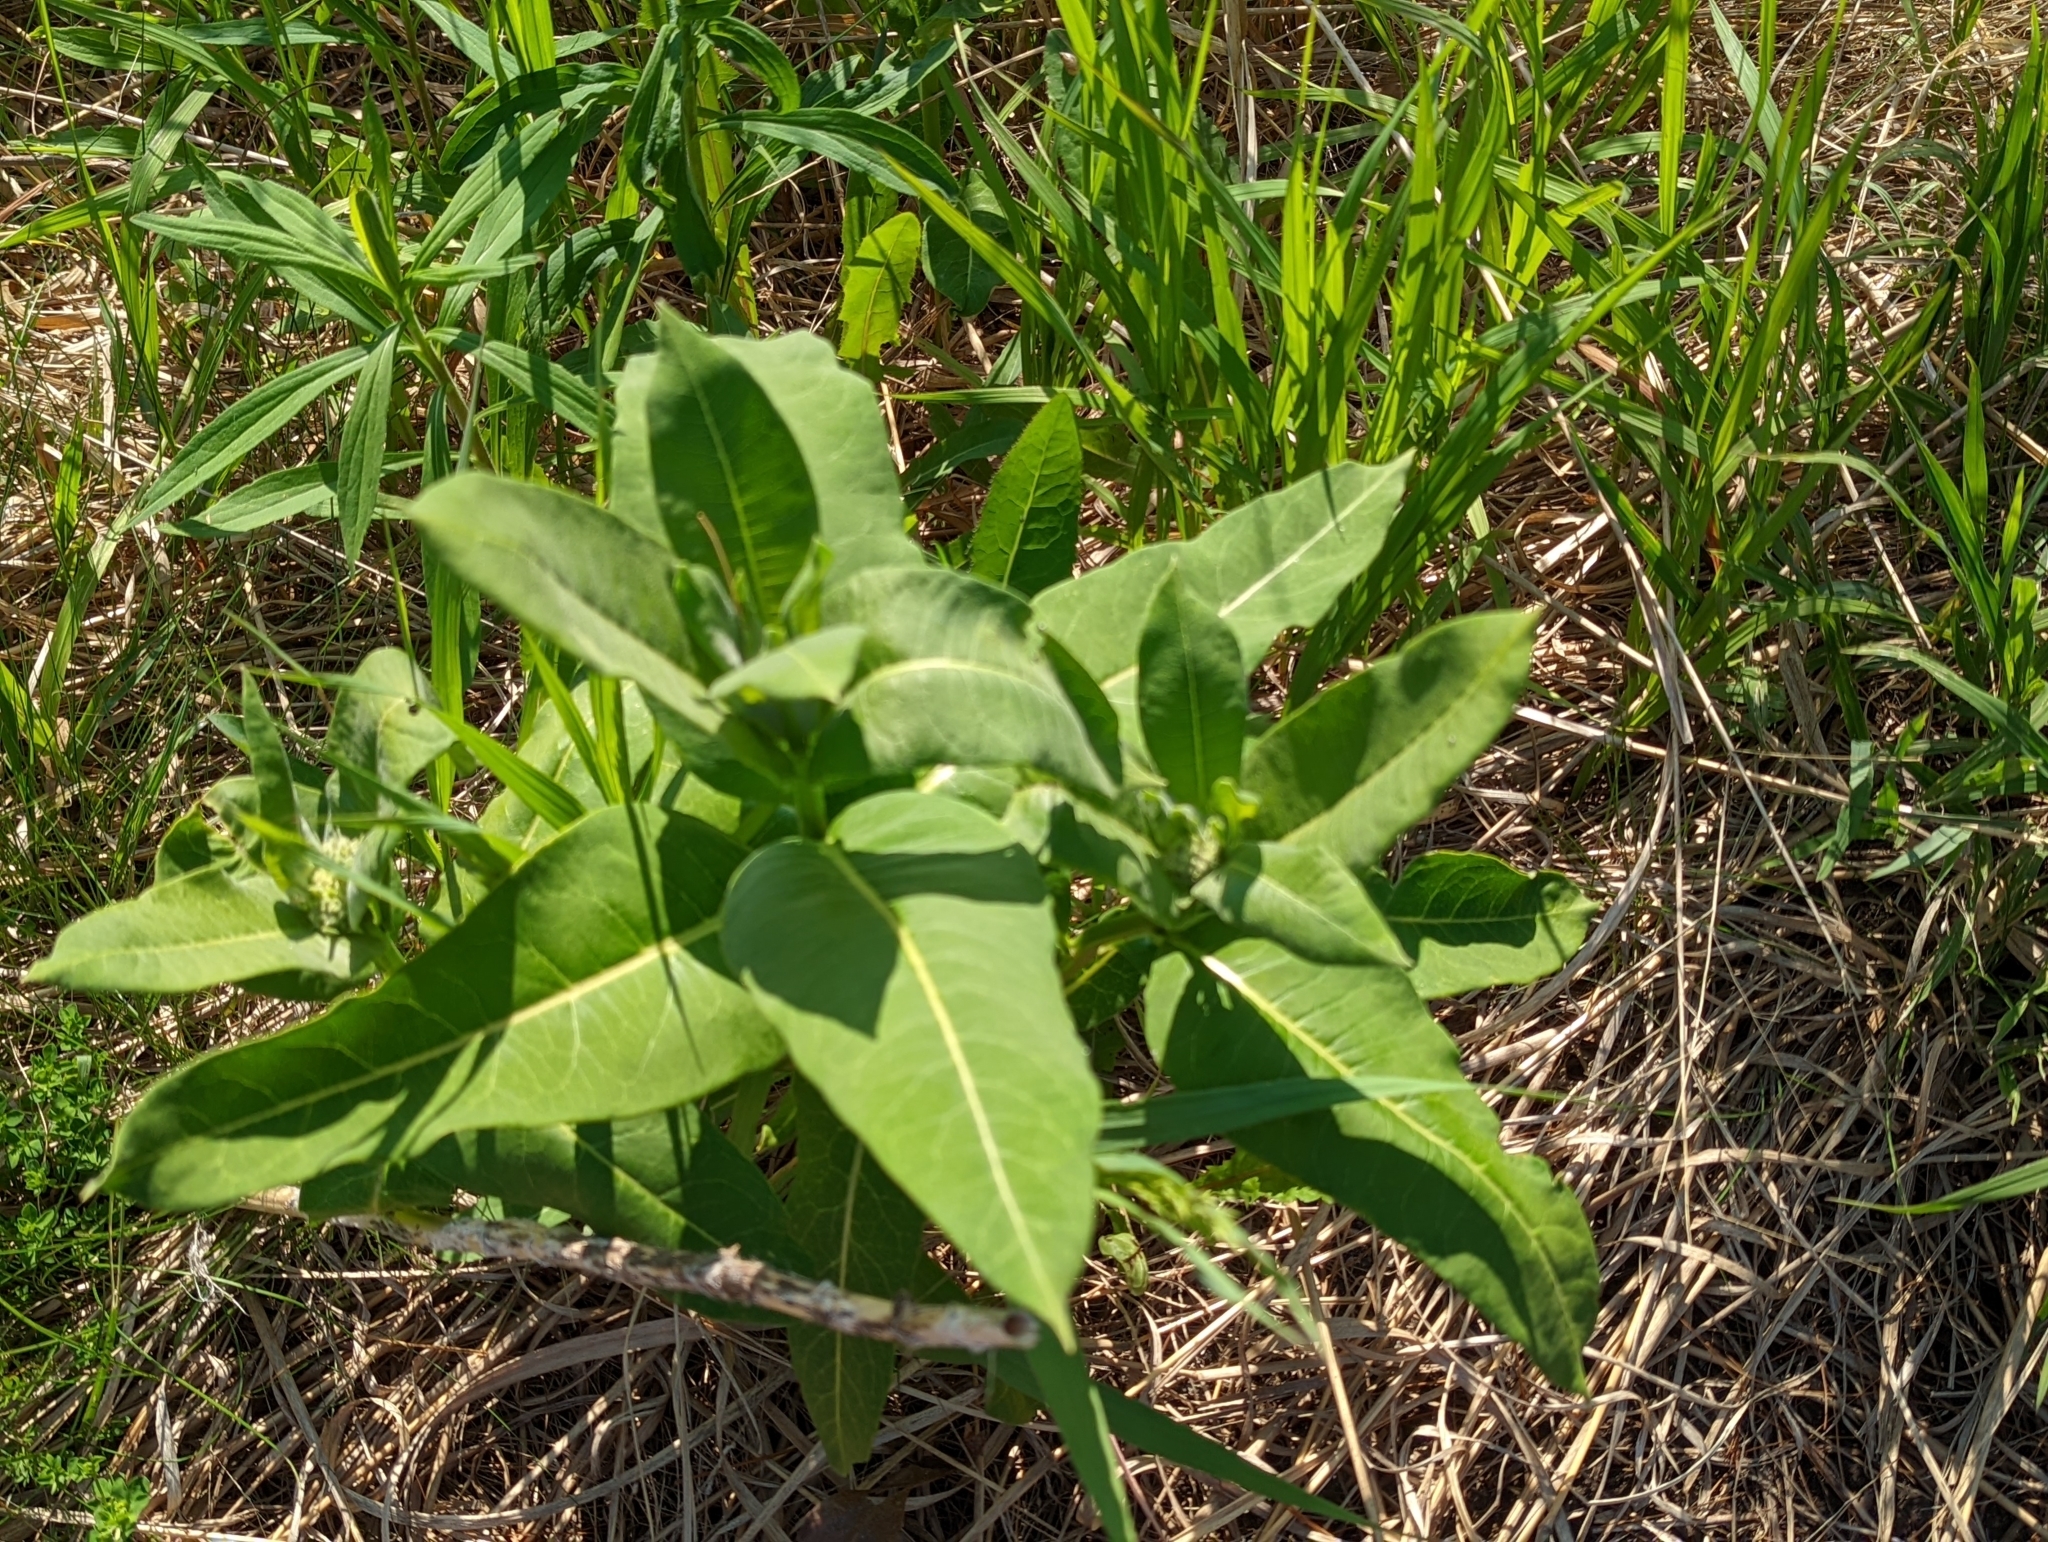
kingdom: Plantae
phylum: Tracheophyta
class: Magnoliopsida
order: Gentianales
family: Apocynaceae
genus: Asclepias
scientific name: Asclepias syriaca
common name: Common milkweed
